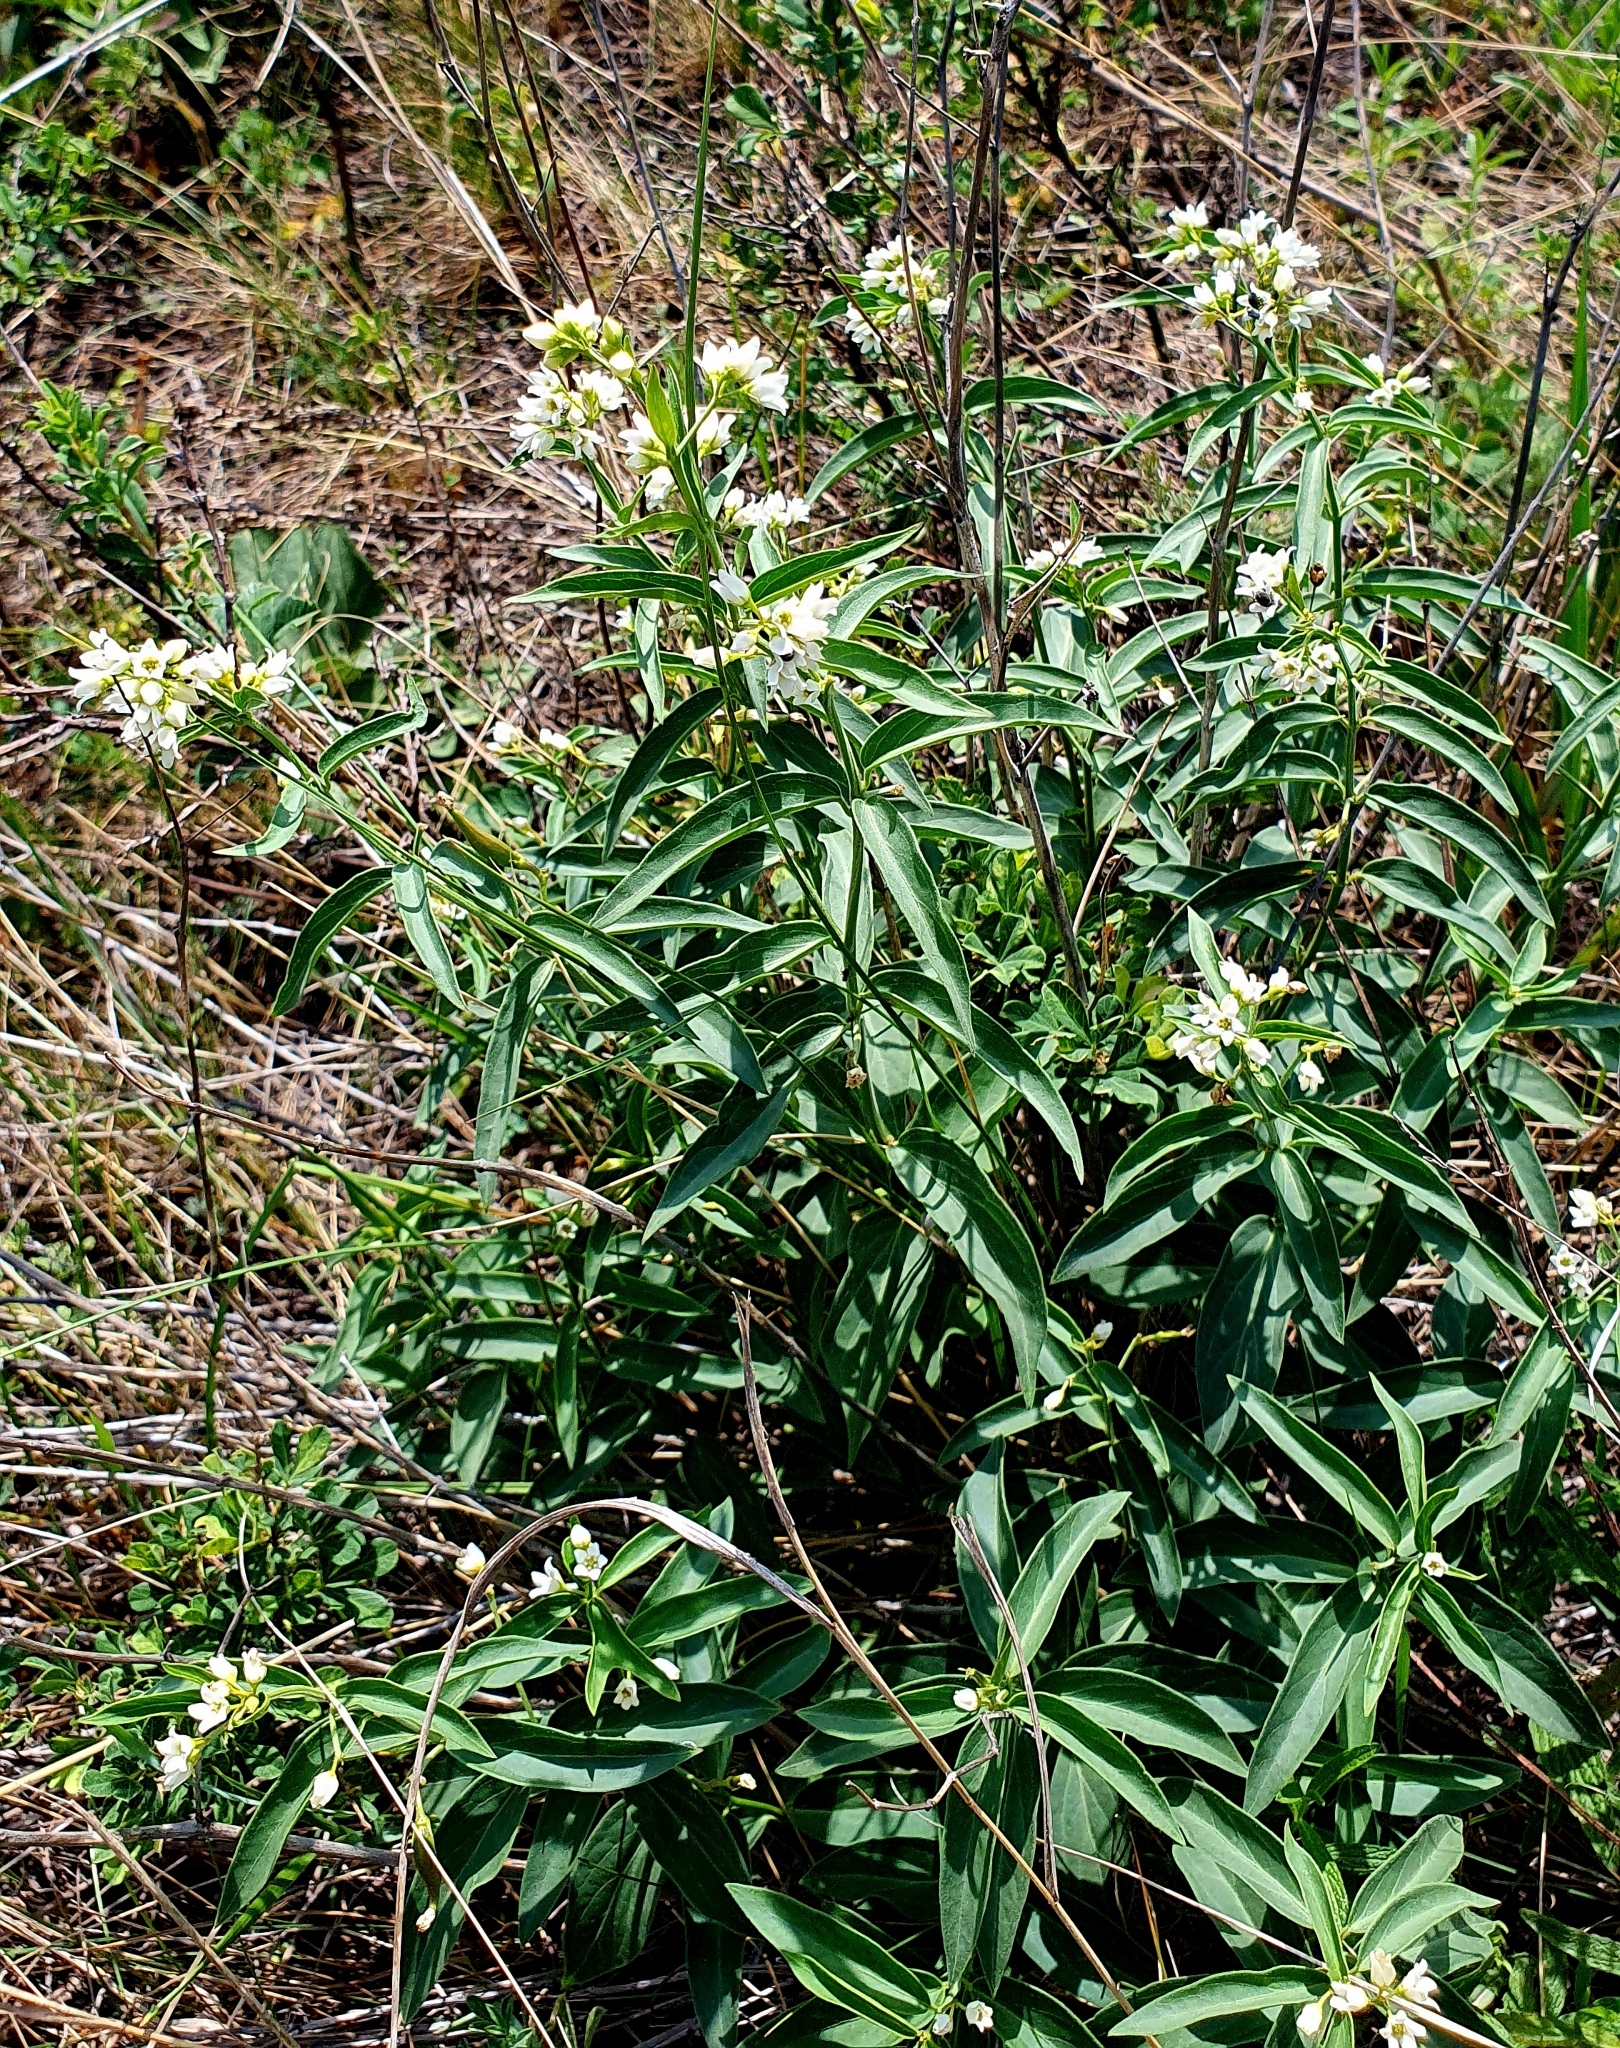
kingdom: Plantae
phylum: Tracheophyta
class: Magnoliopsida
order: Gentianales
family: Apocynaceae
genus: Vincetoxicum
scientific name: Vincetoxicum hirundinaria
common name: White swallowwort
